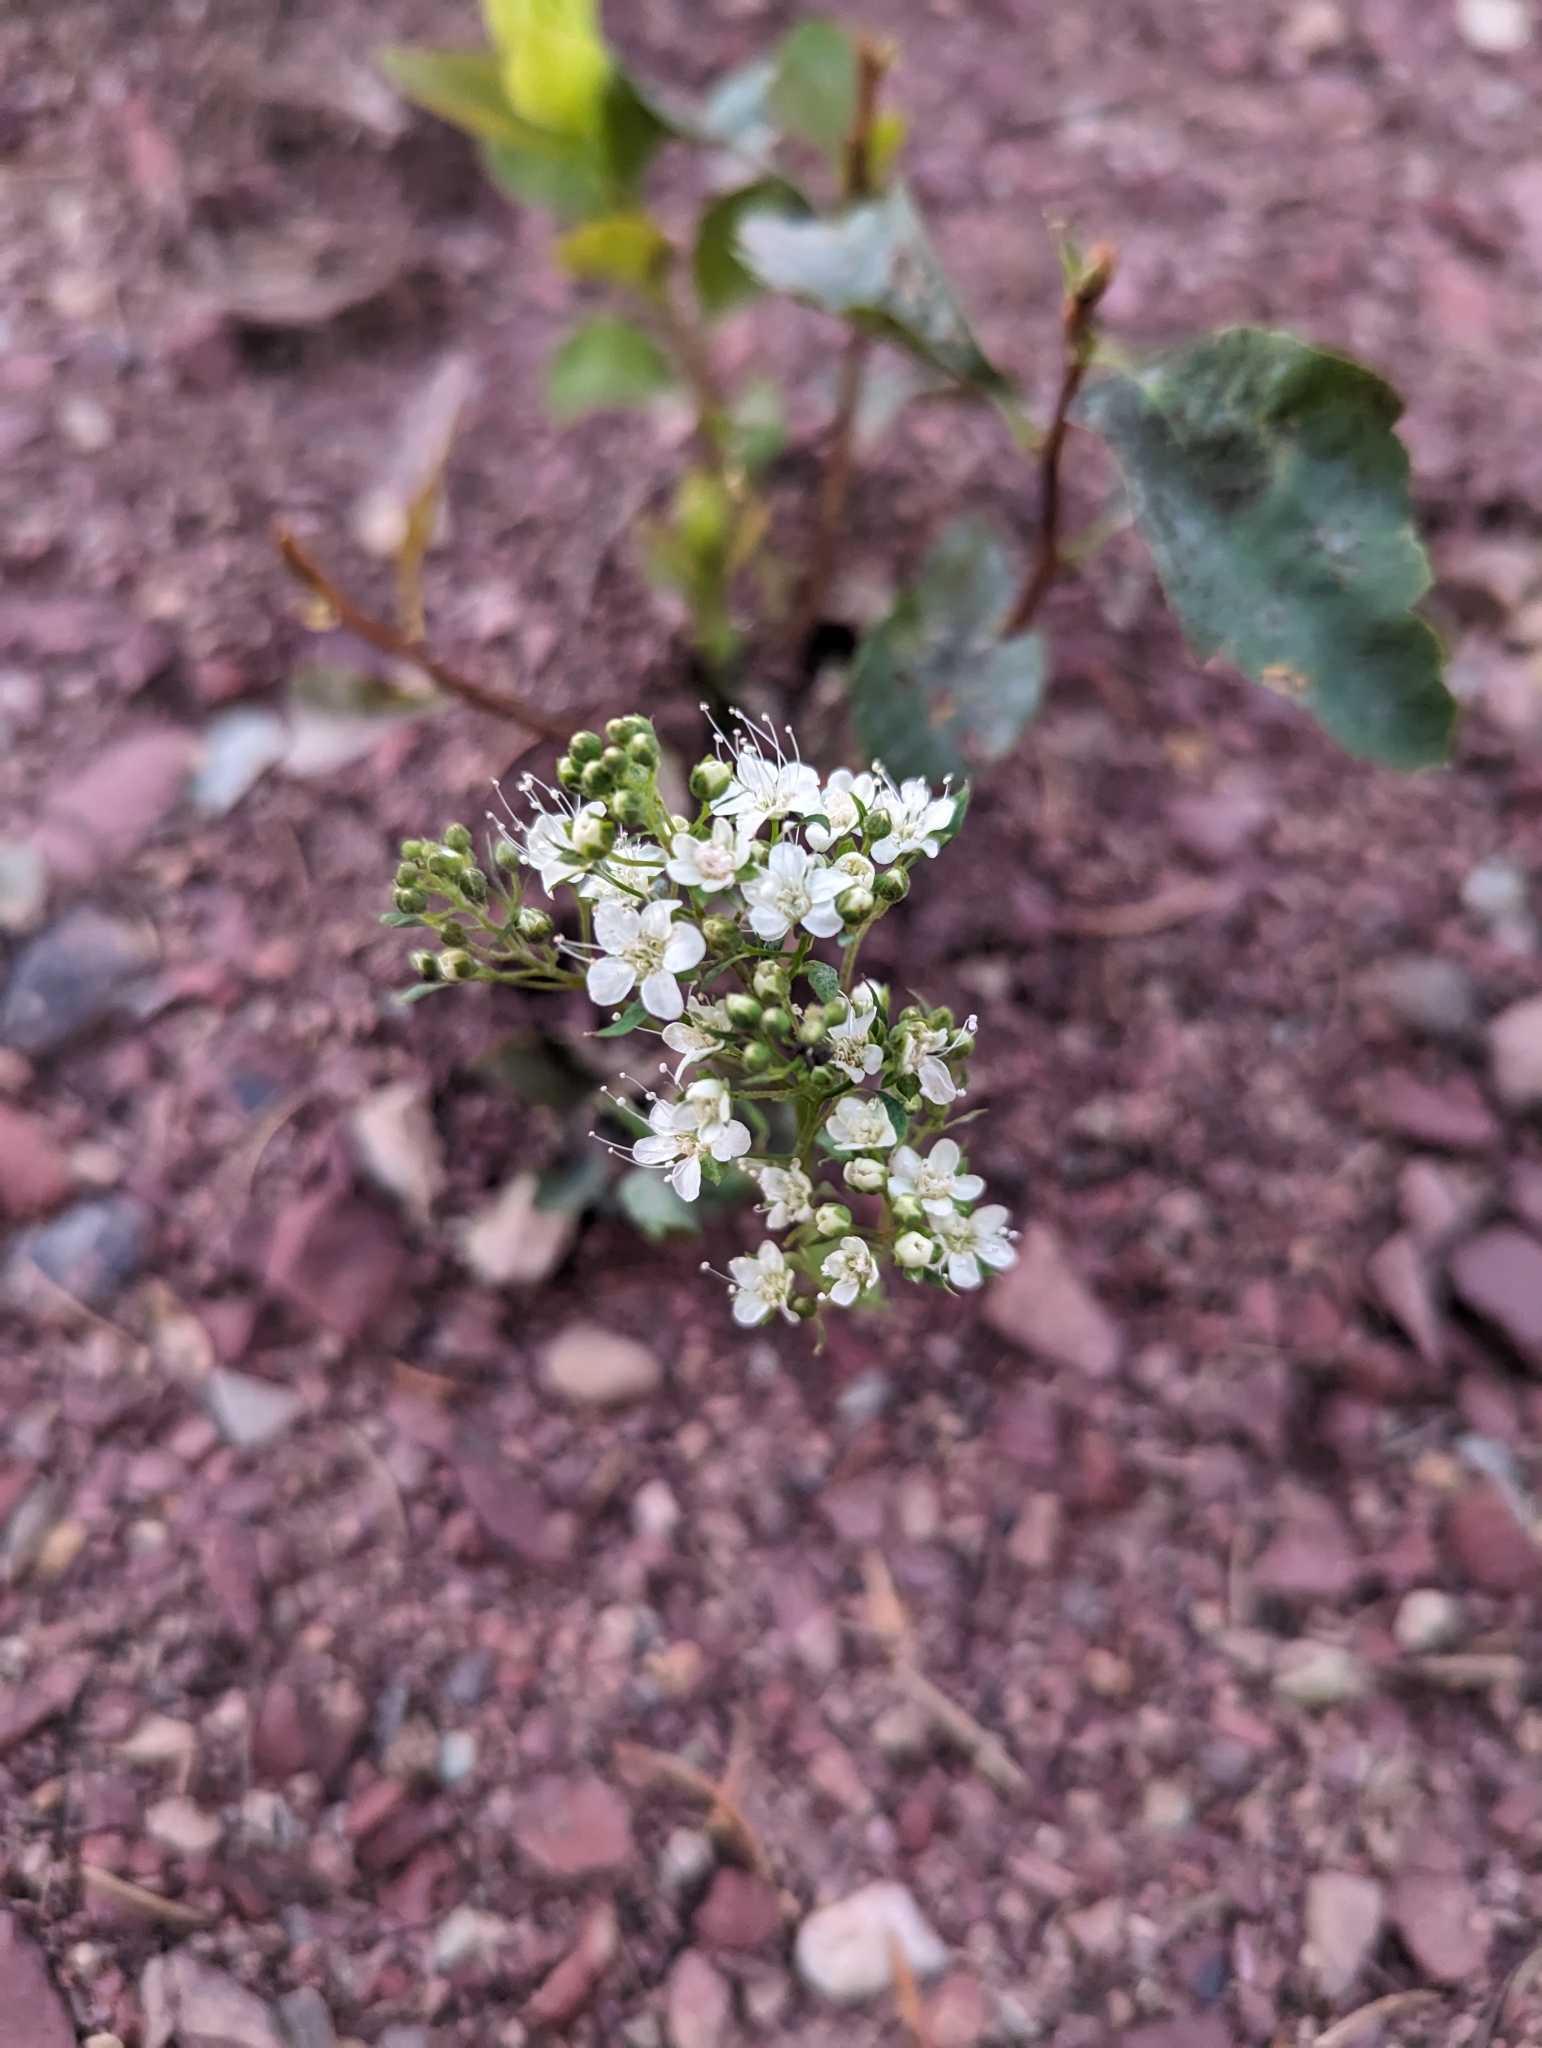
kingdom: Plantae
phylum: Tracheophyta
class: Magnoliopsida
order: Rosales
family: Rosaceae
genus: Spiraea
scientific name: Spiraea lucida
